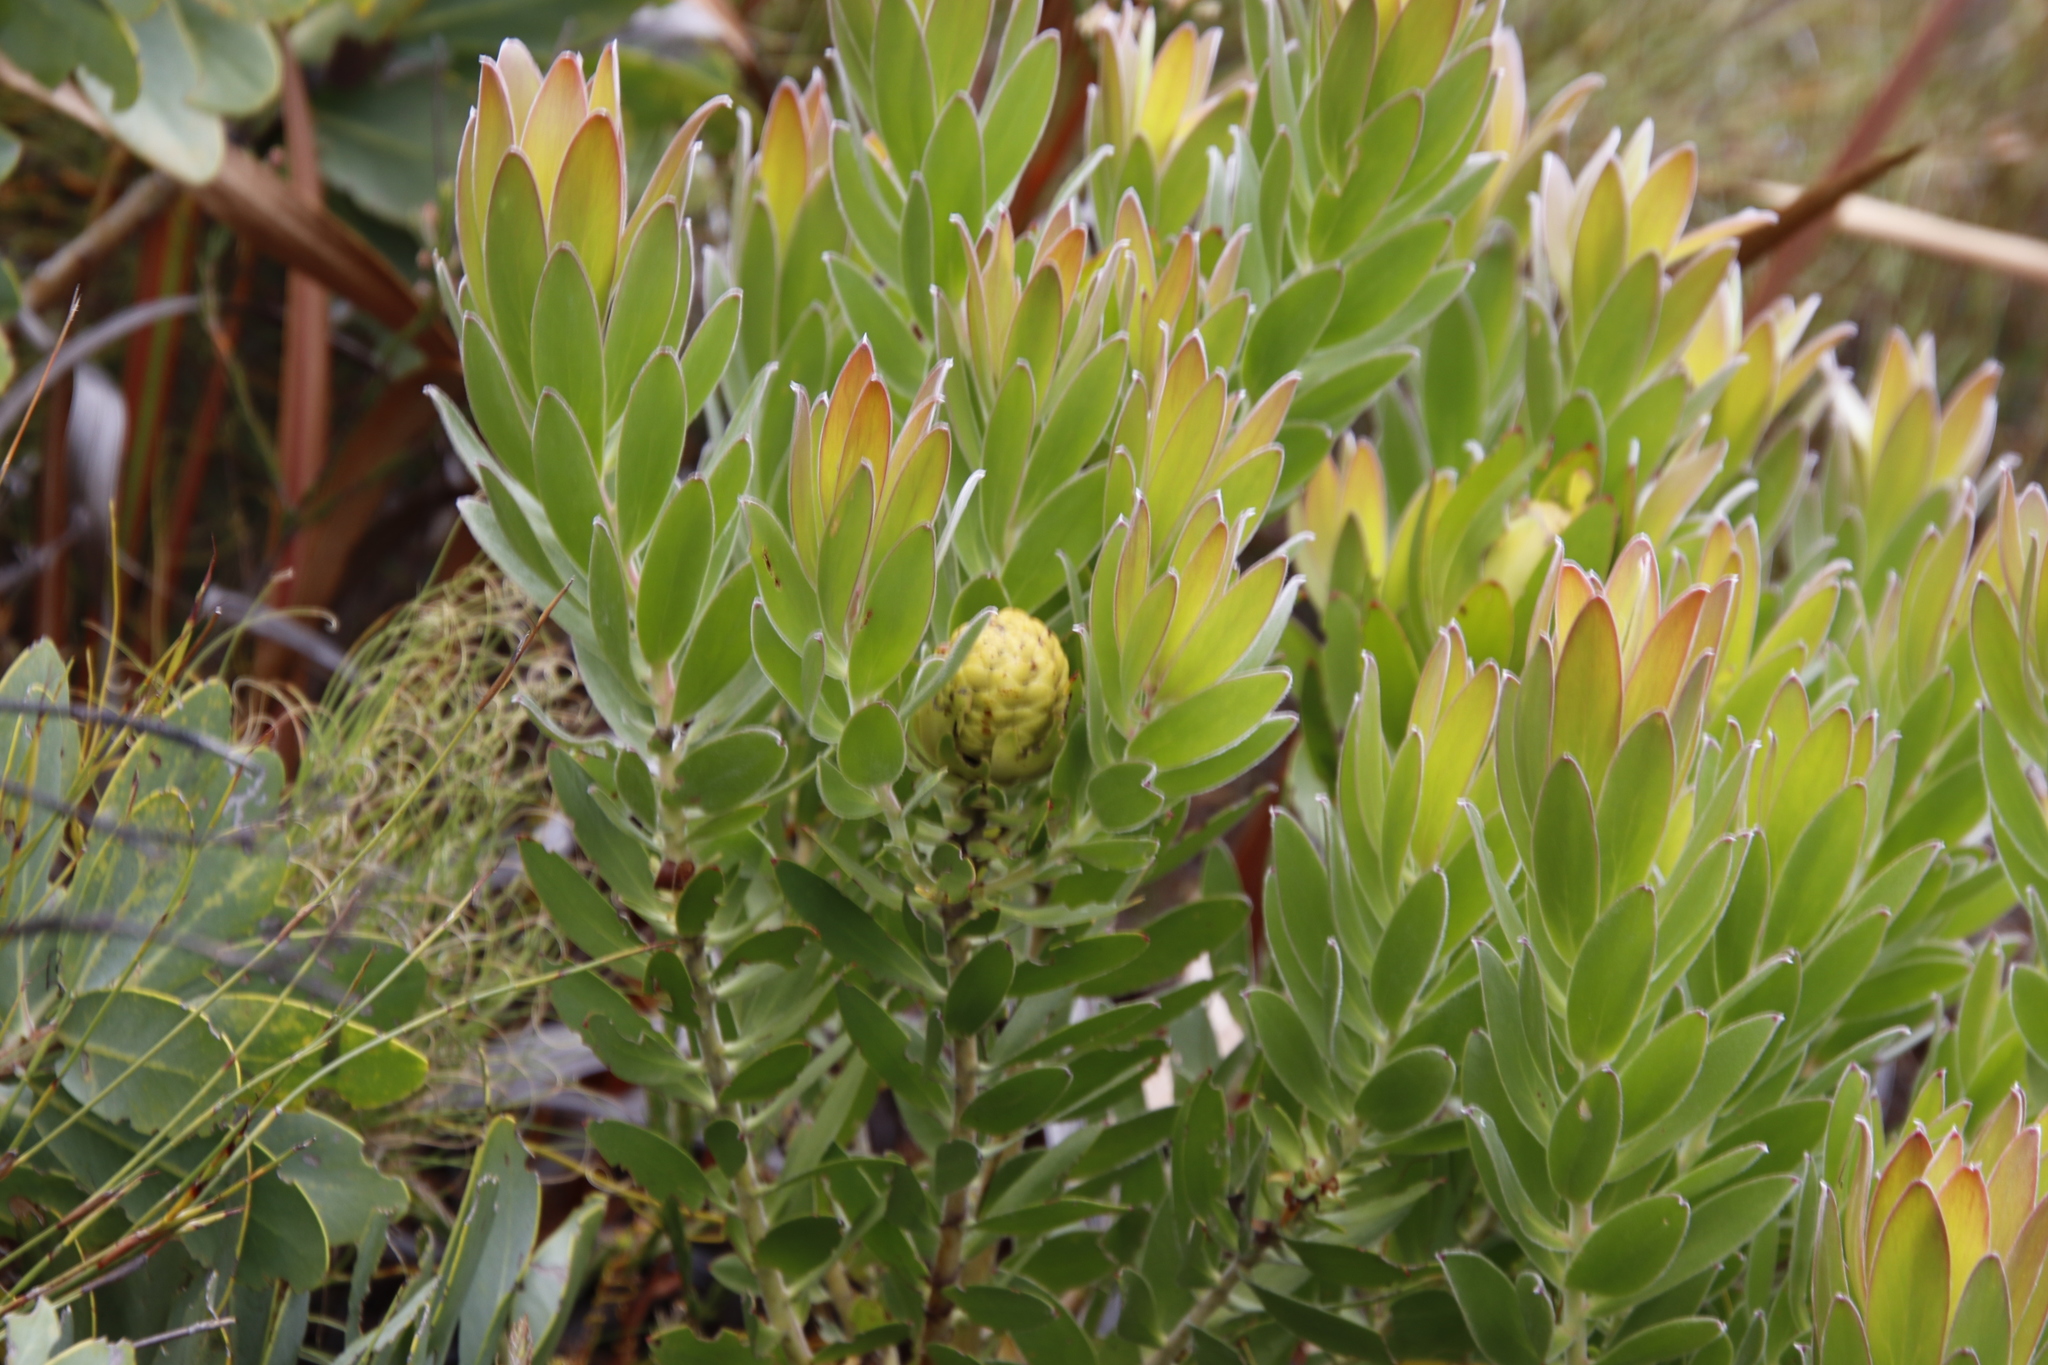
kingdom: Plantae
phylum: Tracheophyta
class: Magnoliopsida
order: Proteales
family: Proteaceae
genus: Leucadendron
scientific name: Leucadendron laureolum
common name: Golden sunshinebush
